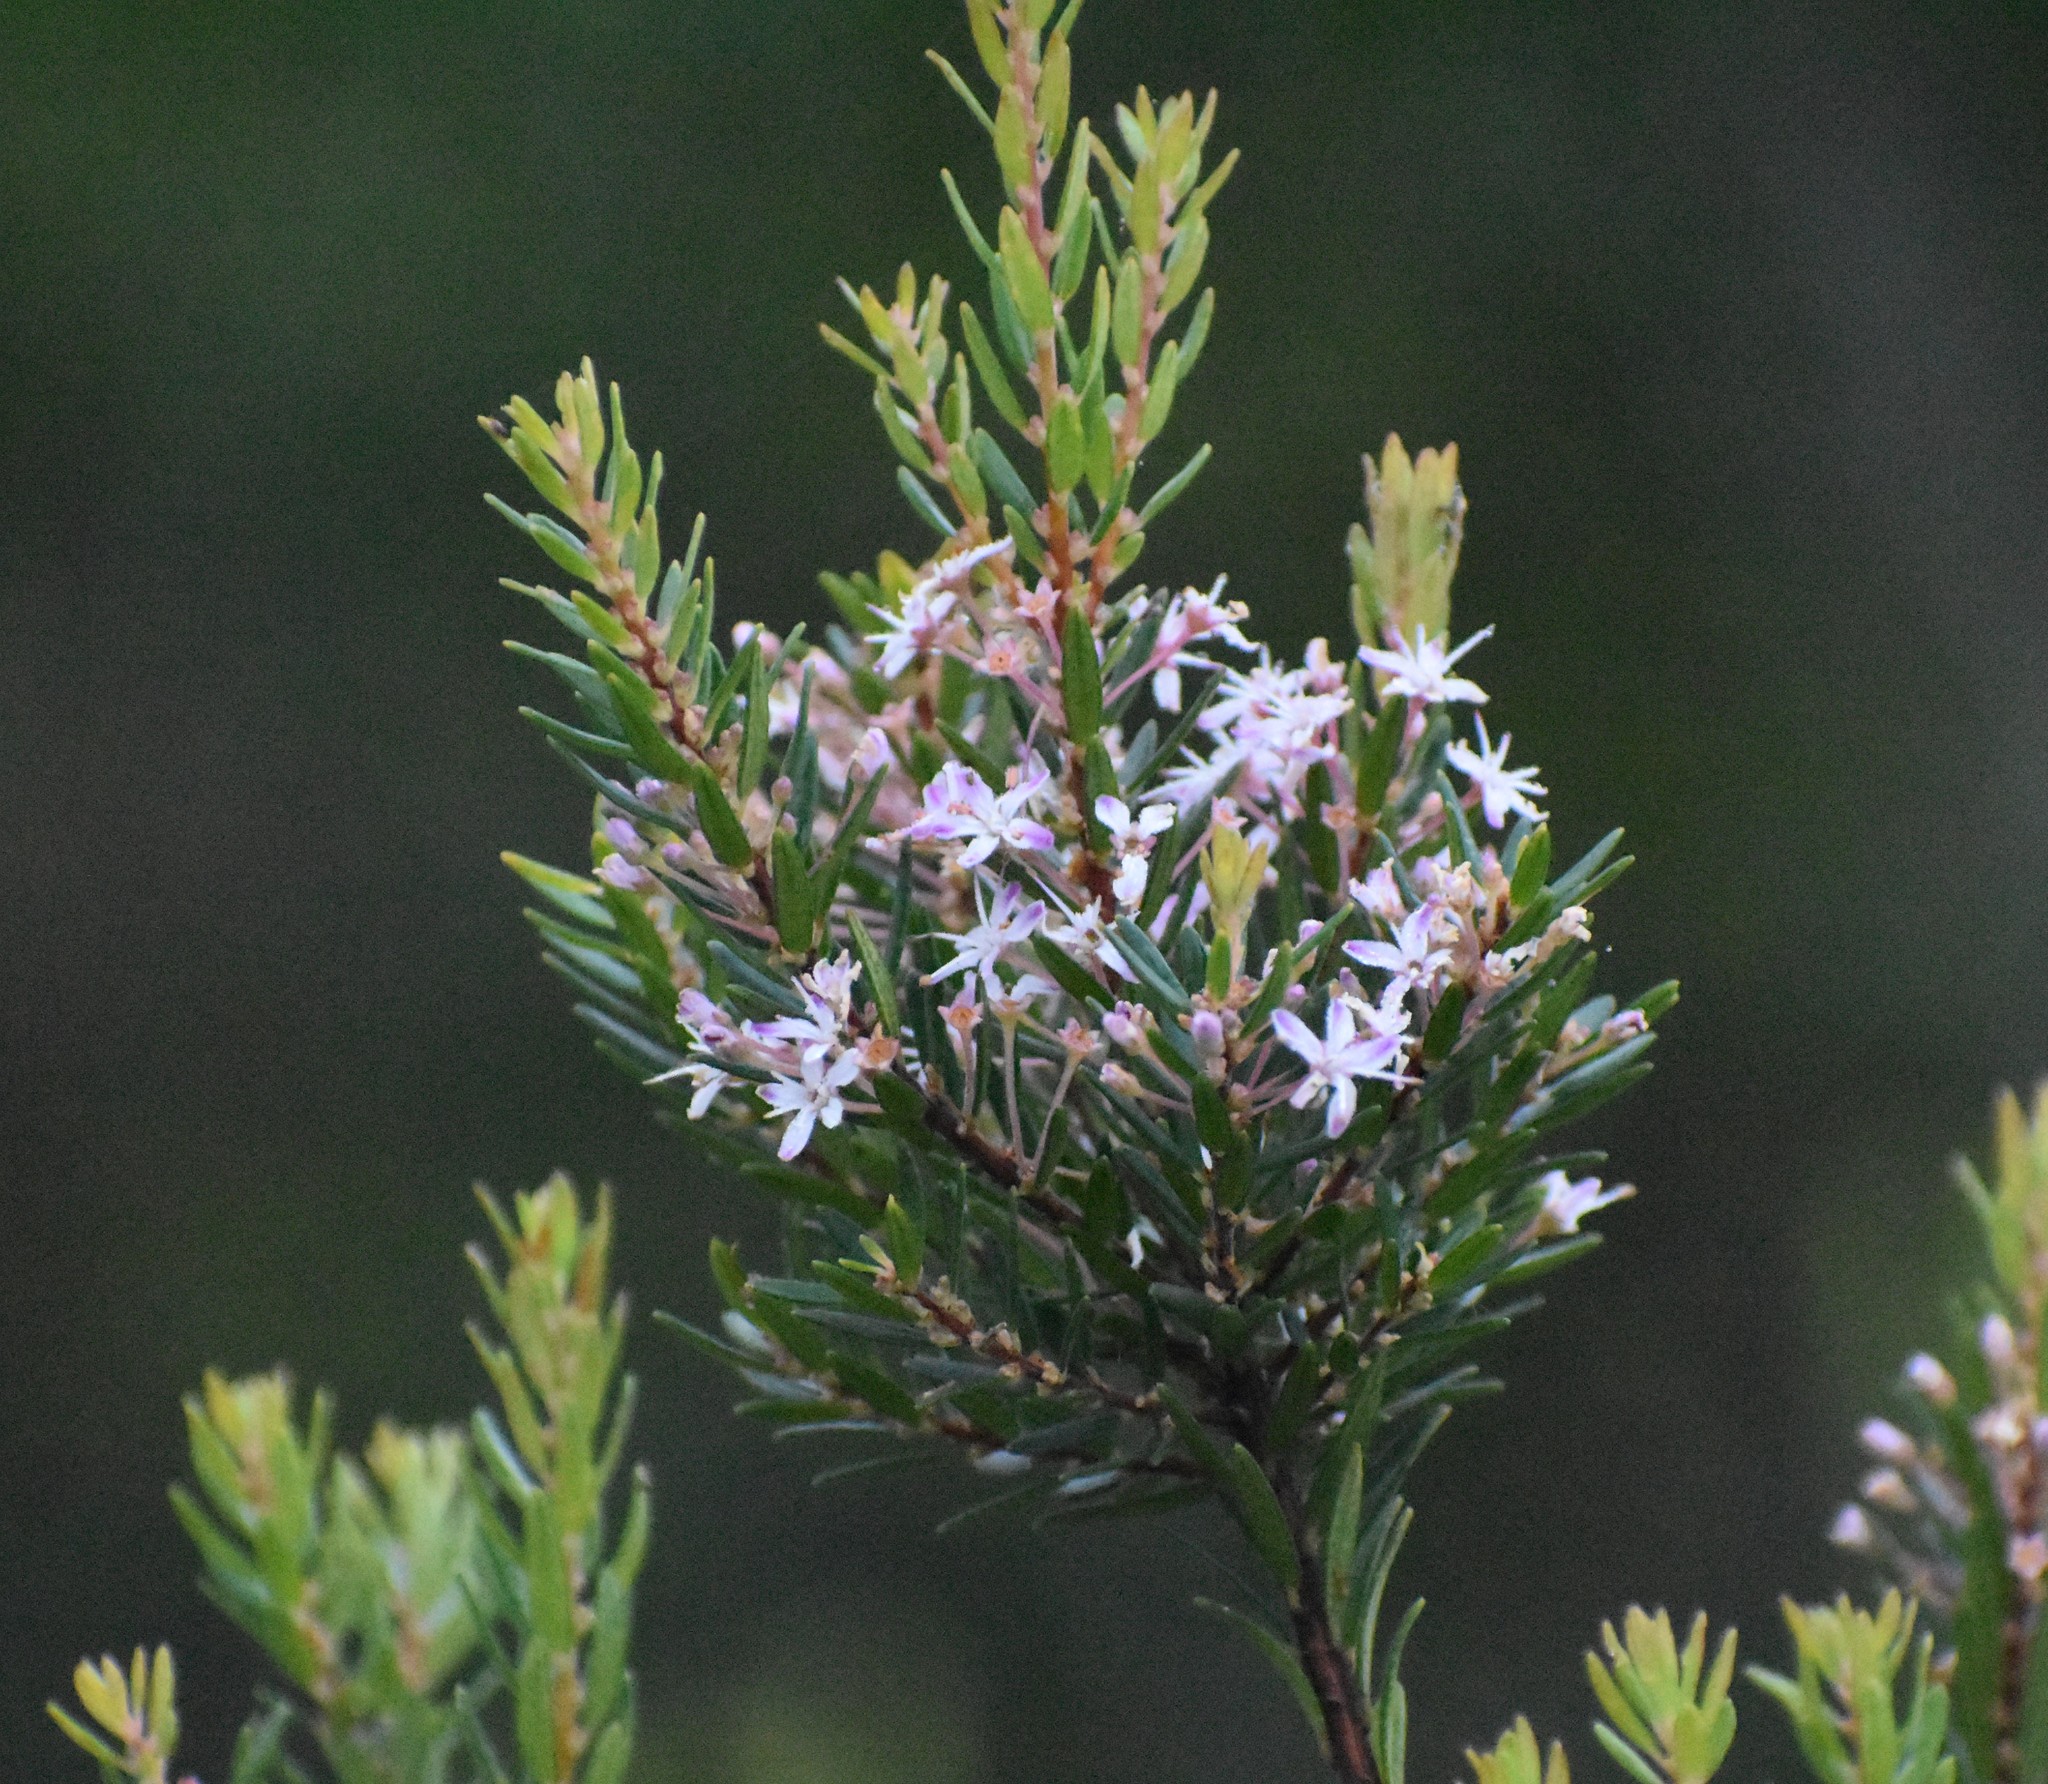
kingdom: Plantae
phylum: Tracheophyta
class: Magnoliopsida
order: Sapindales
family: Rutaceae
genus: Agathosma
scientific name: Agathosma ovata
